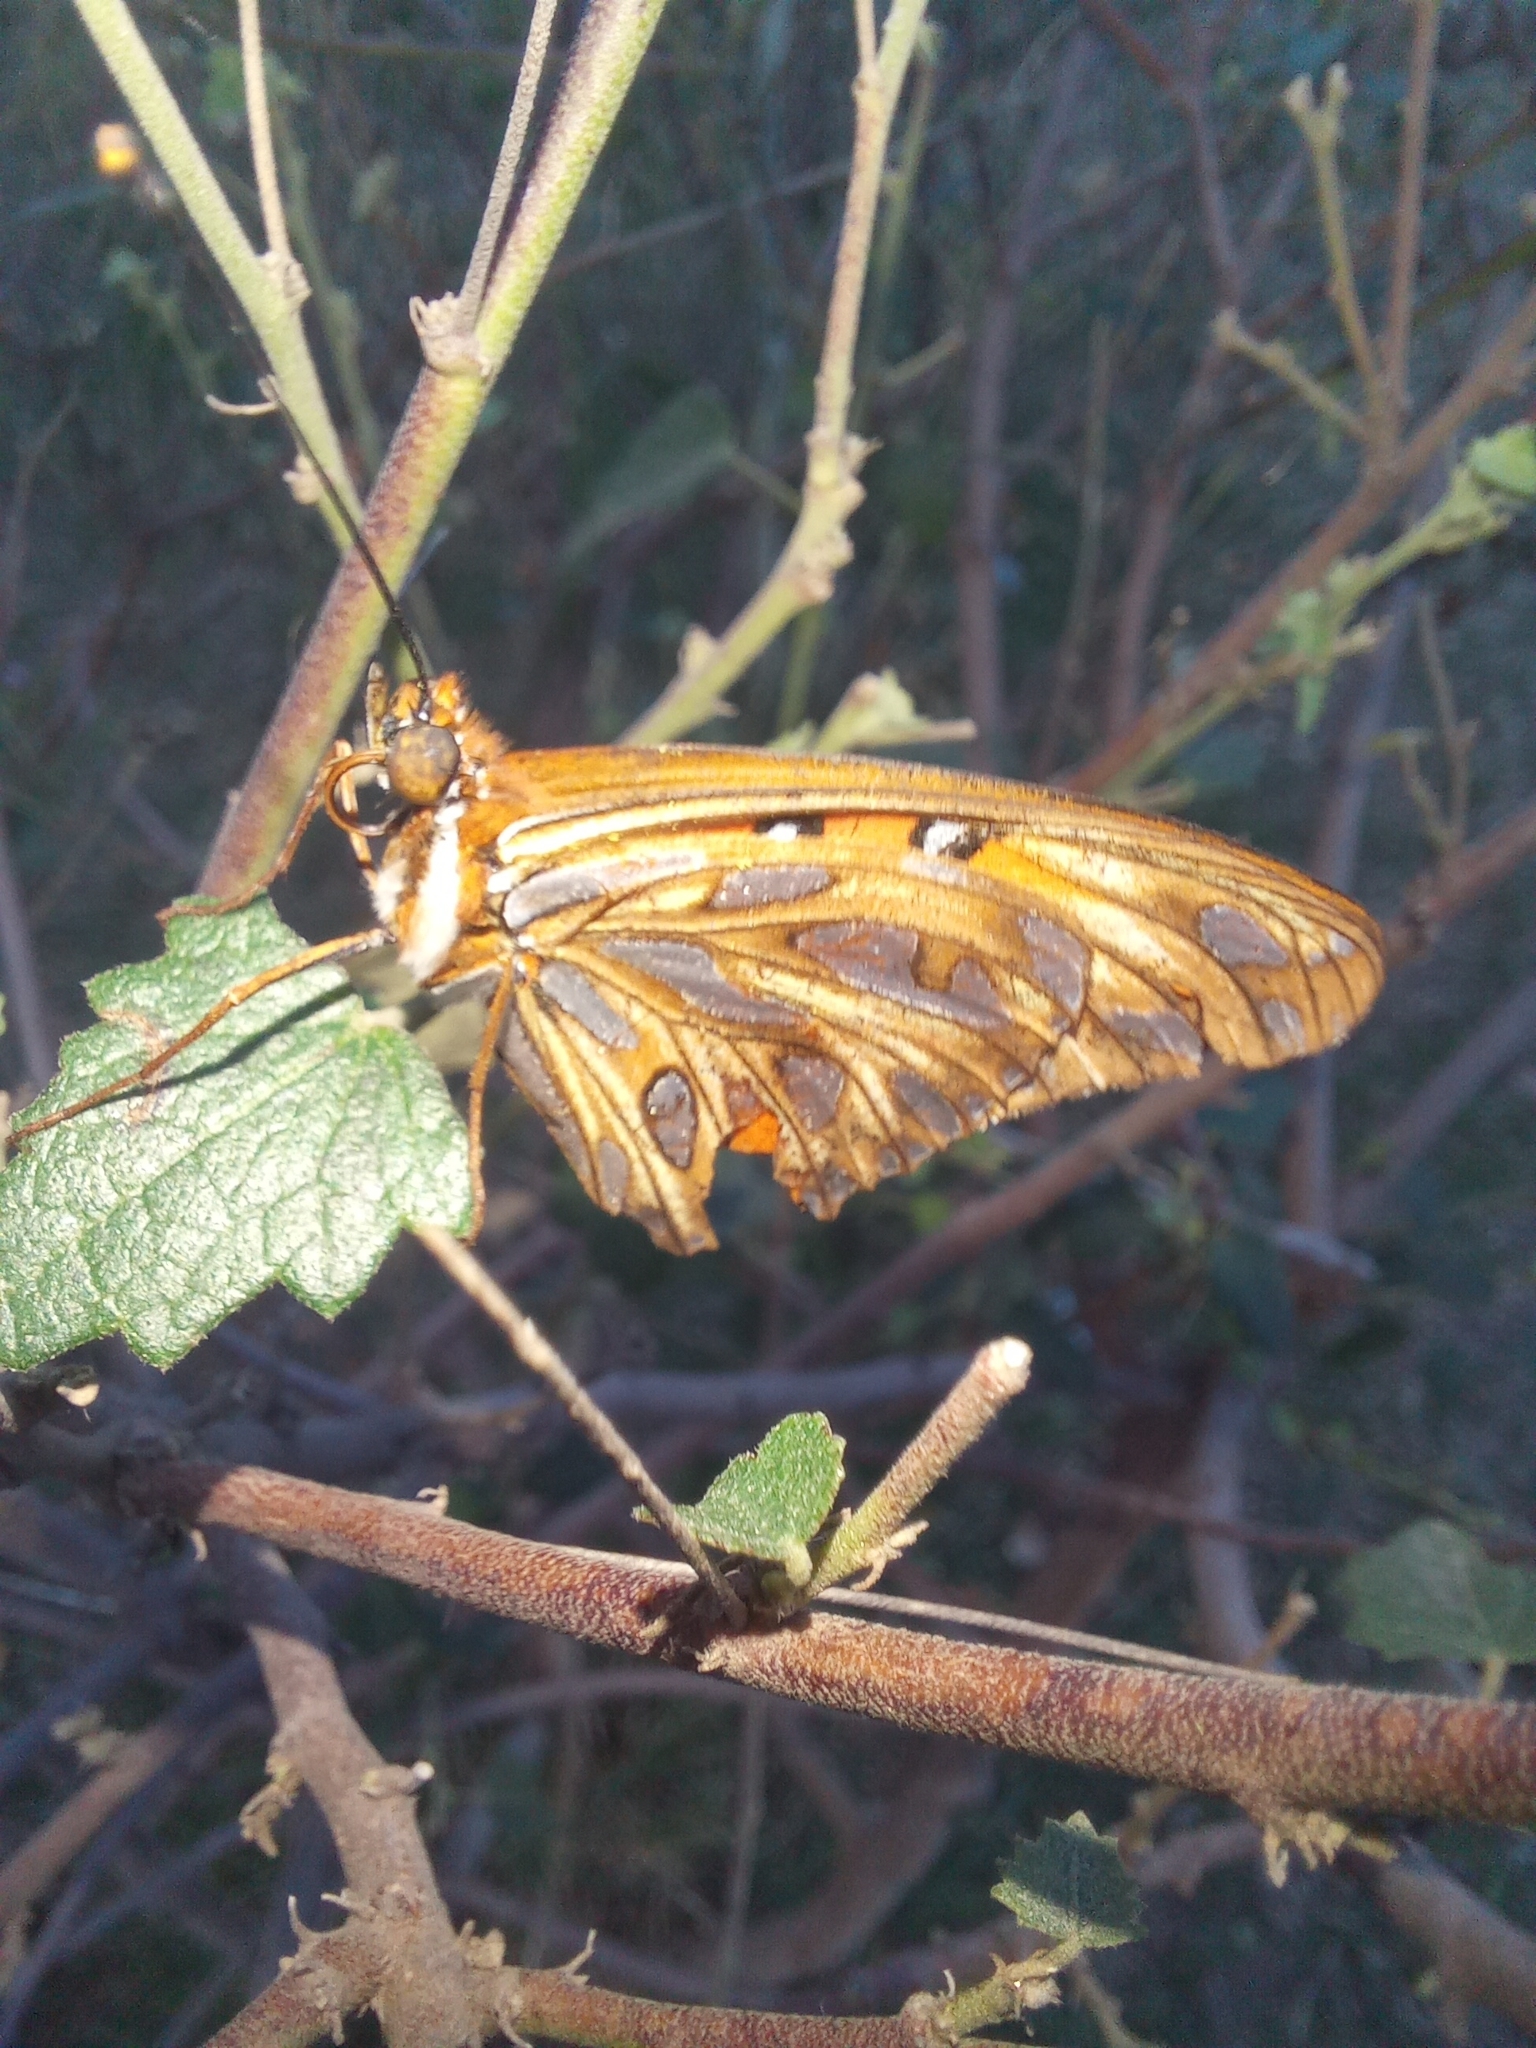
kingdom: Animalia
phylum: Arthropoda
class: Insecta
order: Lepidoptera
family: Nymphalidae
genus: Dione
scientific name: Dione vanillae
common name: Gulf fritillary
